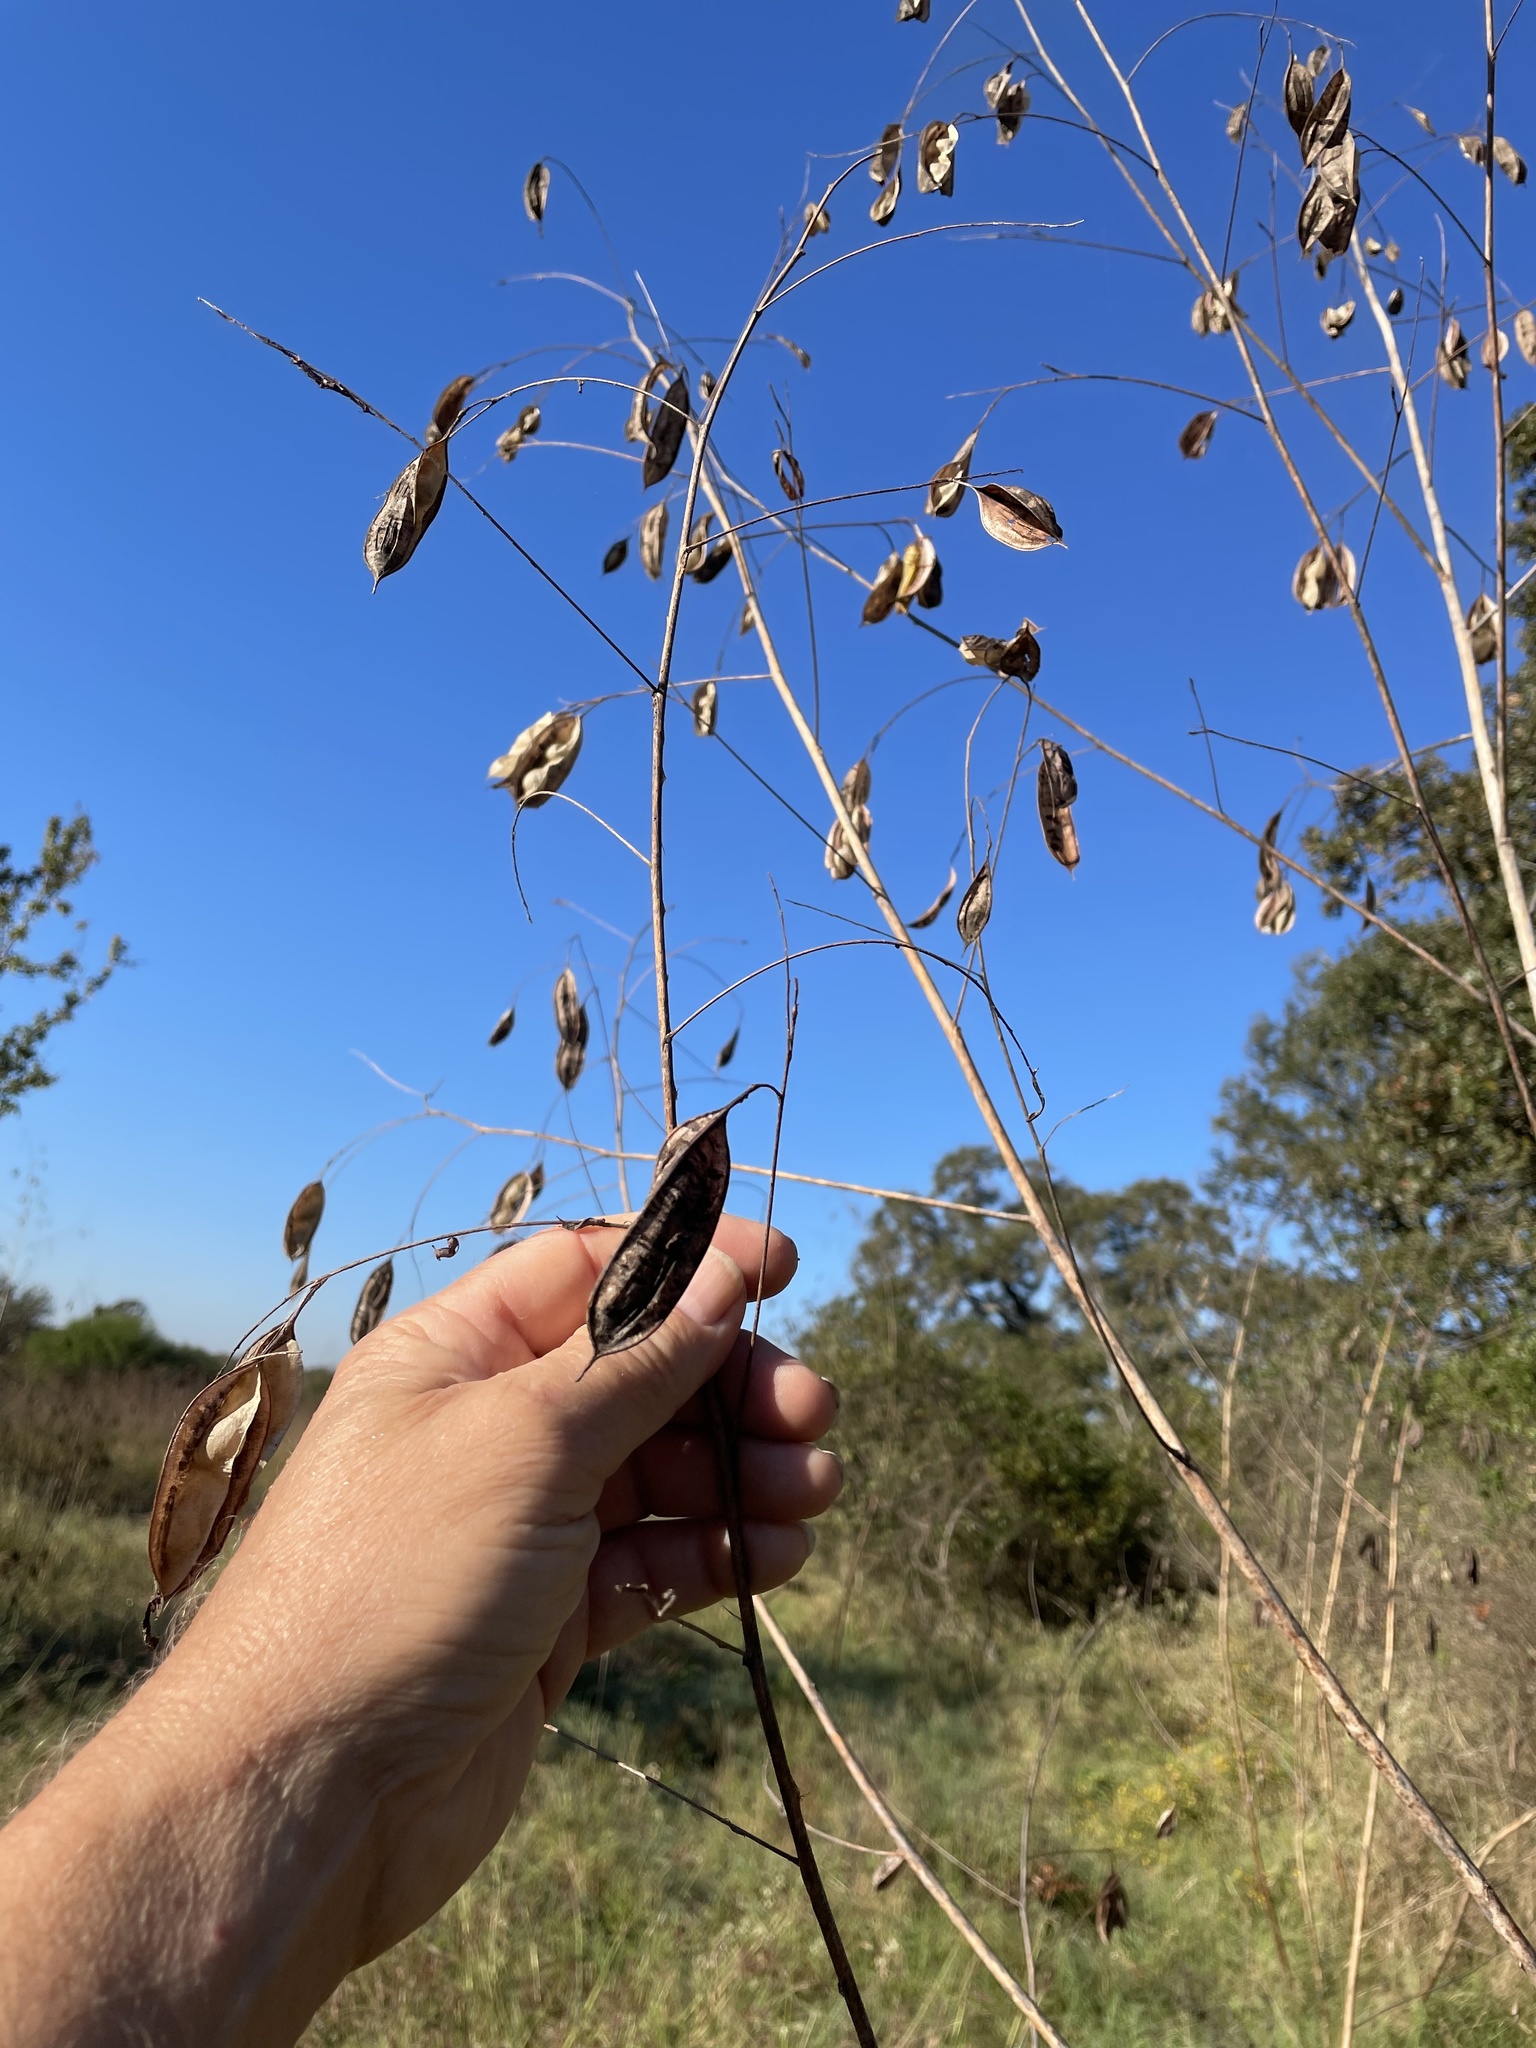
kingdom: Plantae
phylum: Tracheophyta
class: Magnoliopsida
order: Fabales
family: Fabaceae
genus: Sesbania
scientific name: Sesbania vesicaria
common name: Bagpod
